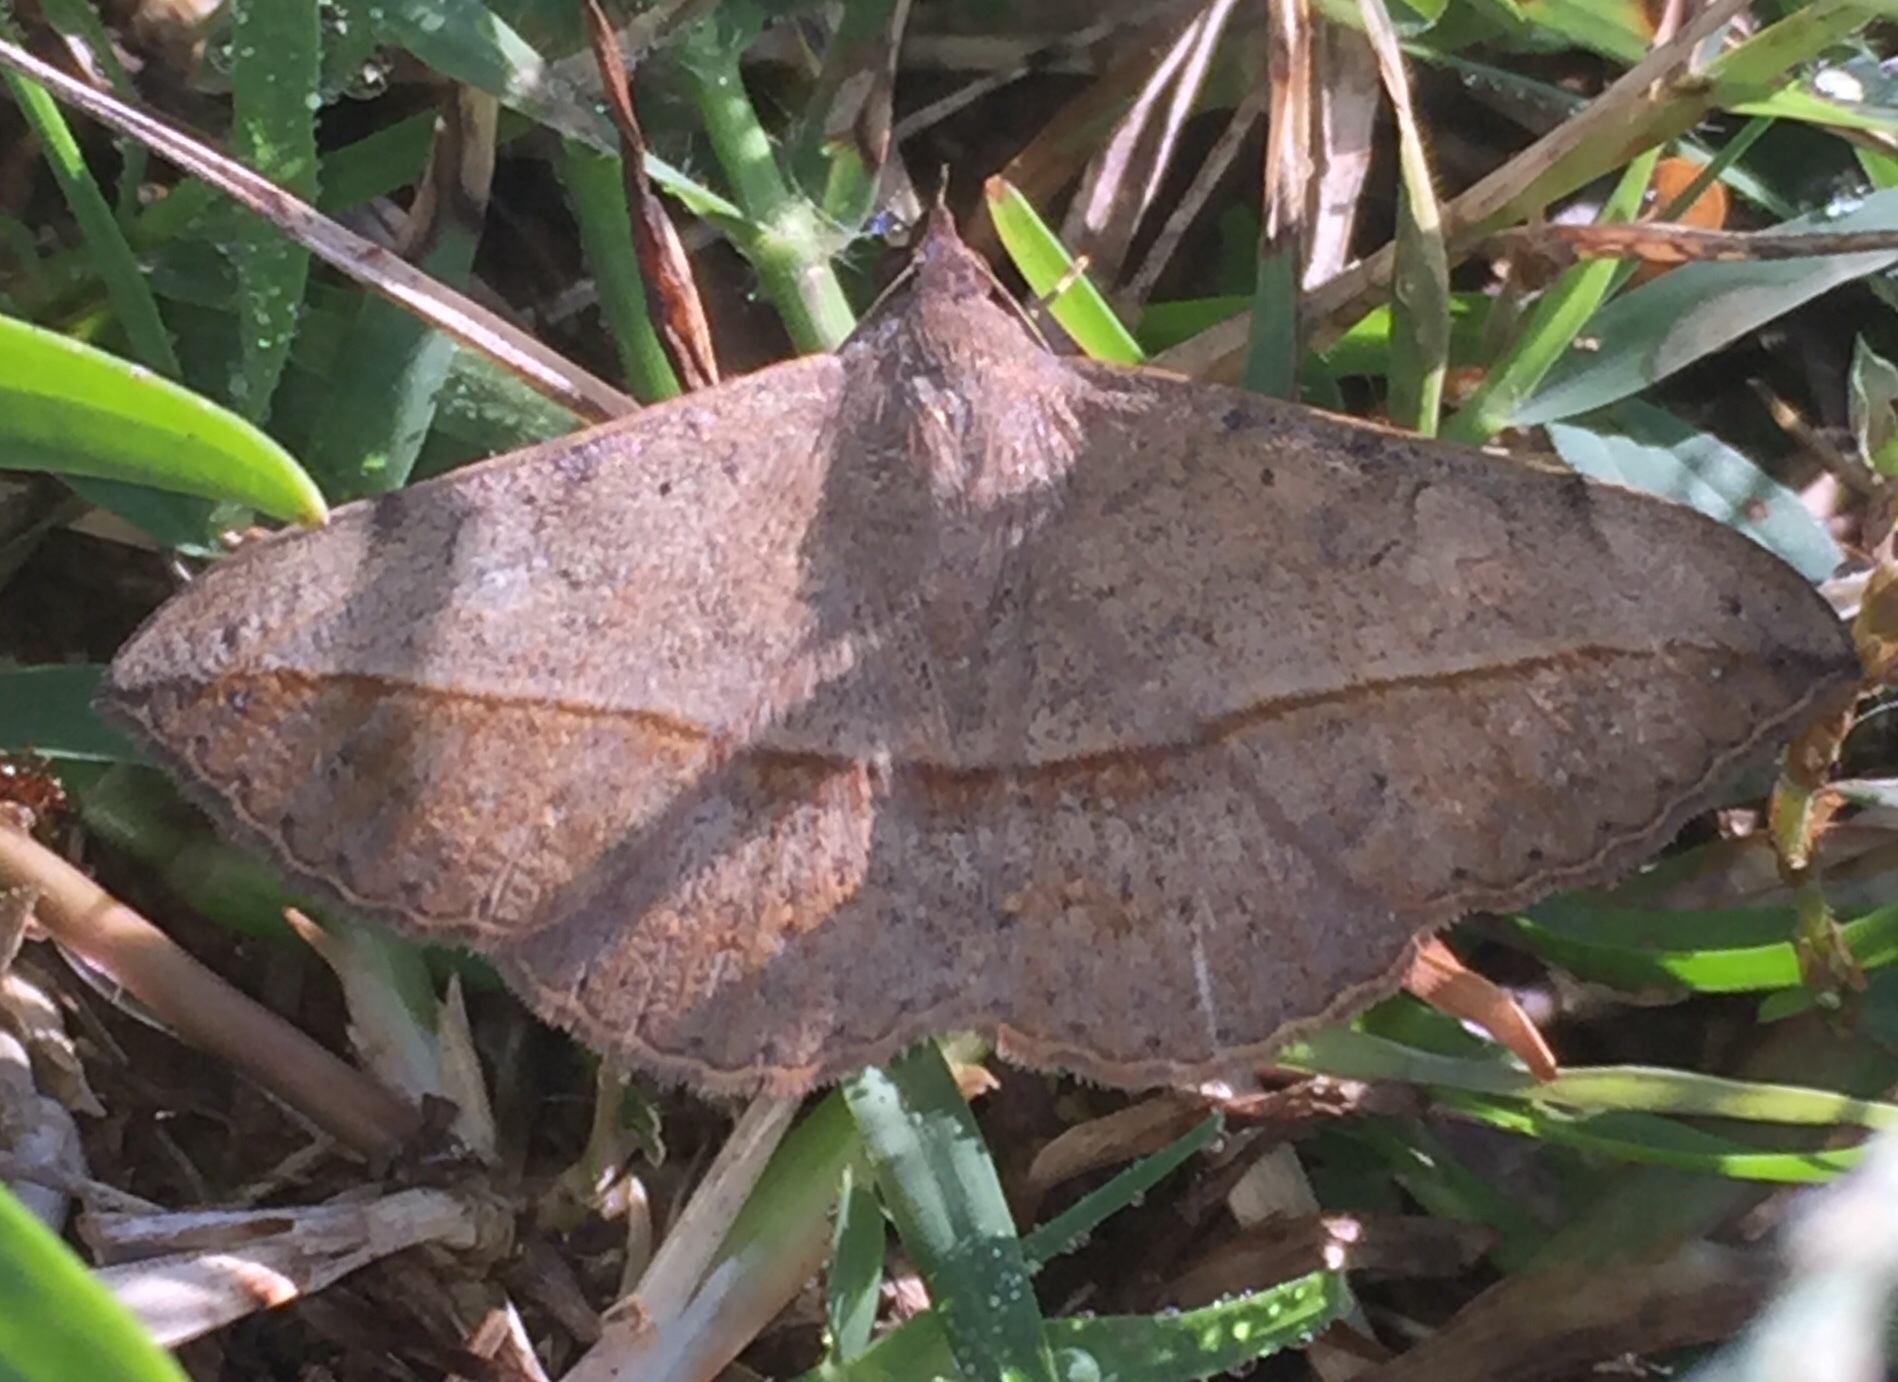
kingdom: Animalia
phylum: Arthropoda
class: Insecta
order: Lepidoptera
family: Erebidae
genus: Anticarsia
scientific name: Anticarsia gemmatalis
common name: Cutworm moth
